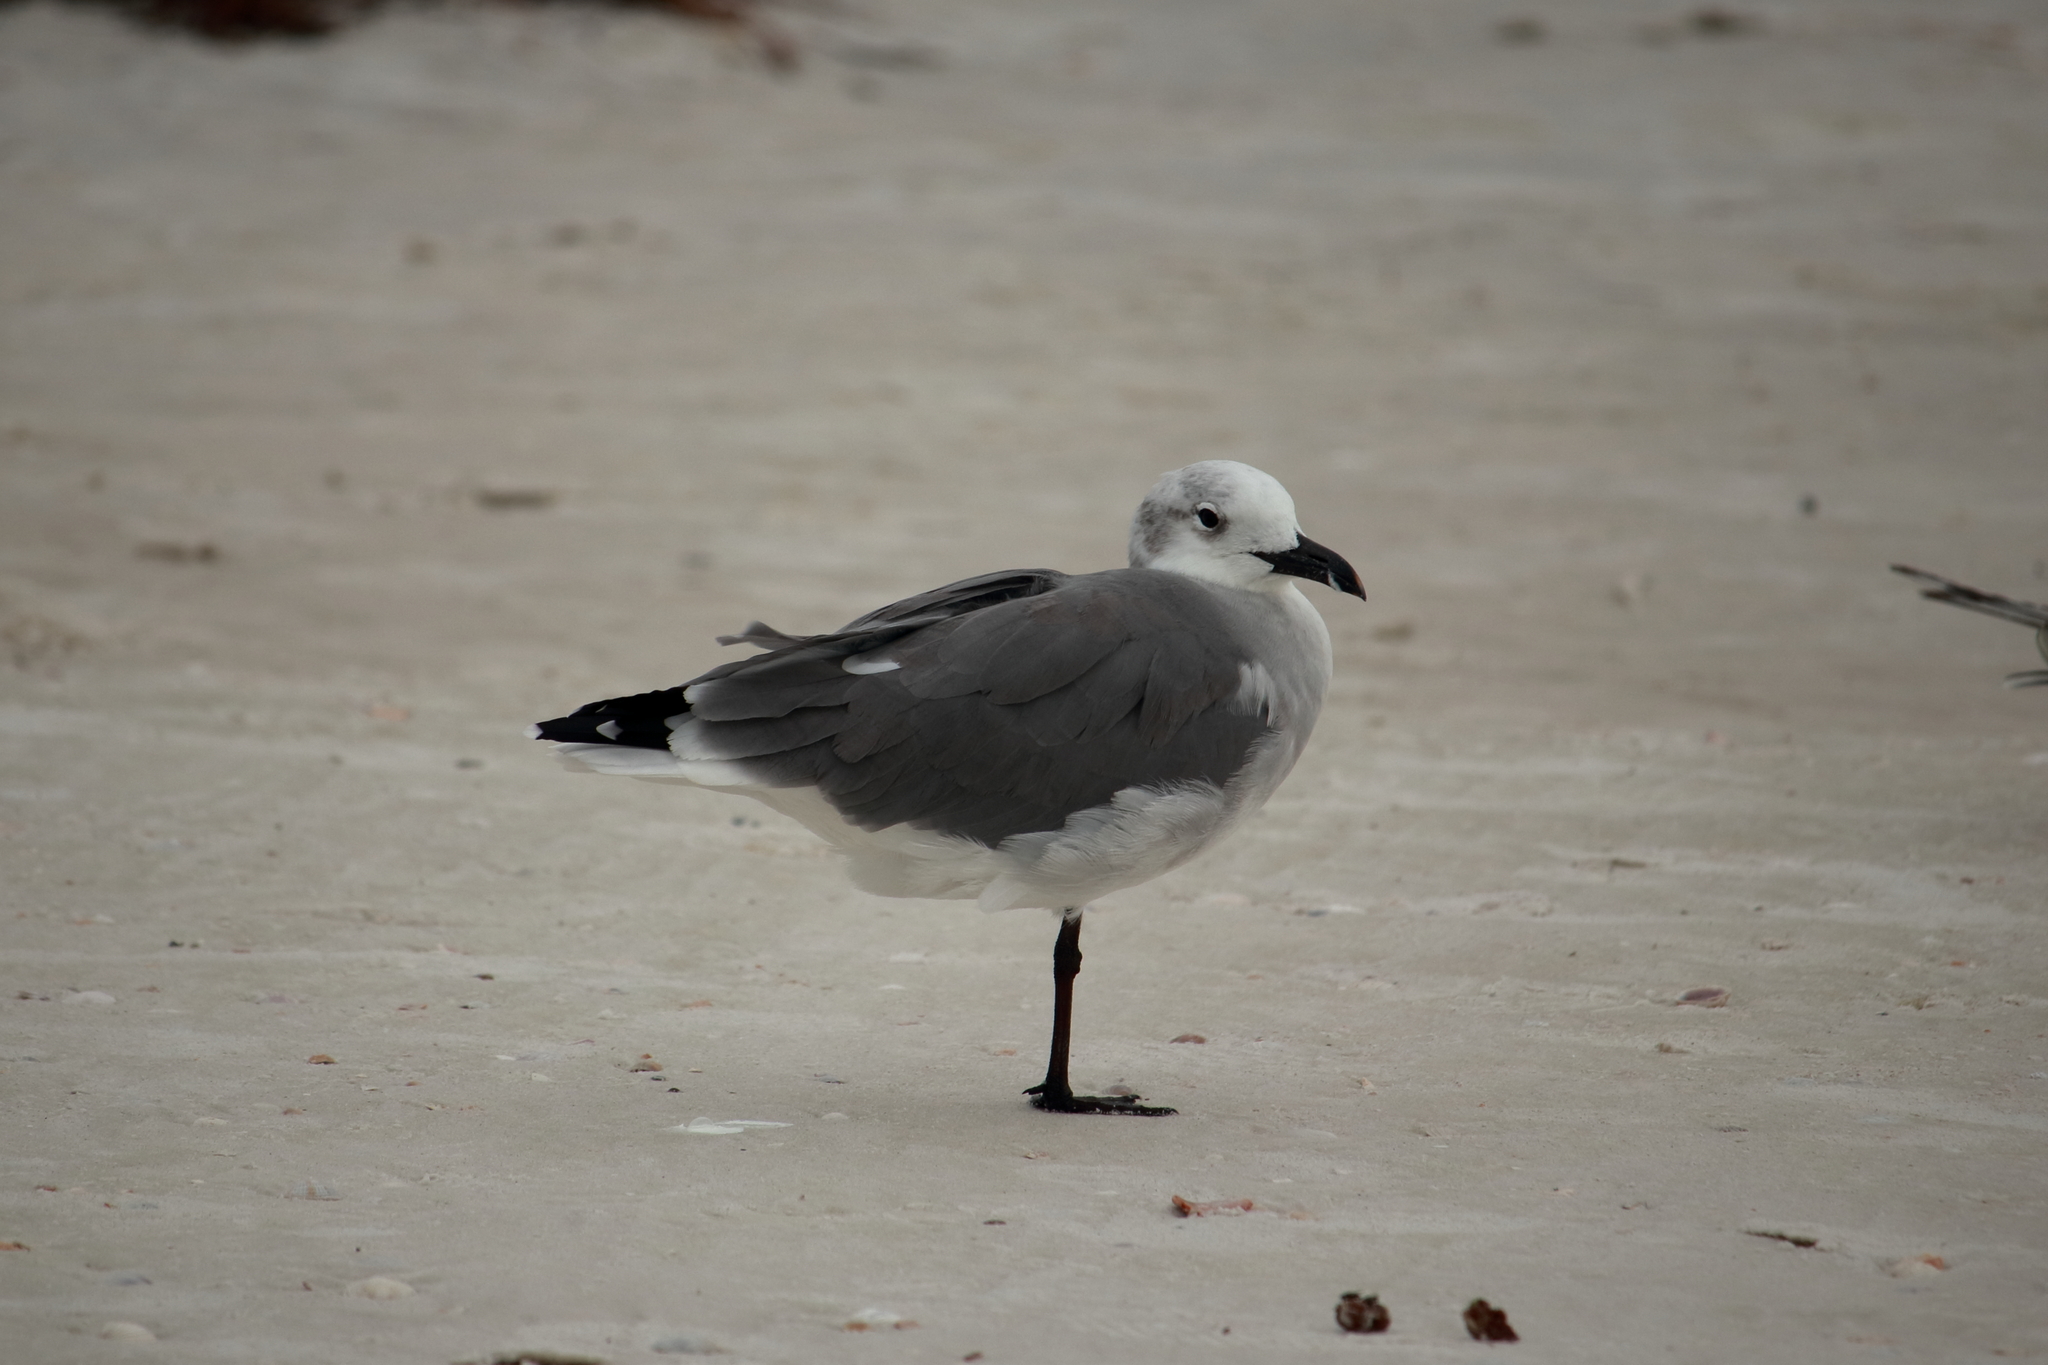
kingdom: Animalia
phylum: Chordata
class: Aves
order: Charadriiformes
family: Laridae
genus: Leucophaeus
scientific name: Leucophaeus atricilla
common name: Laughing gull
